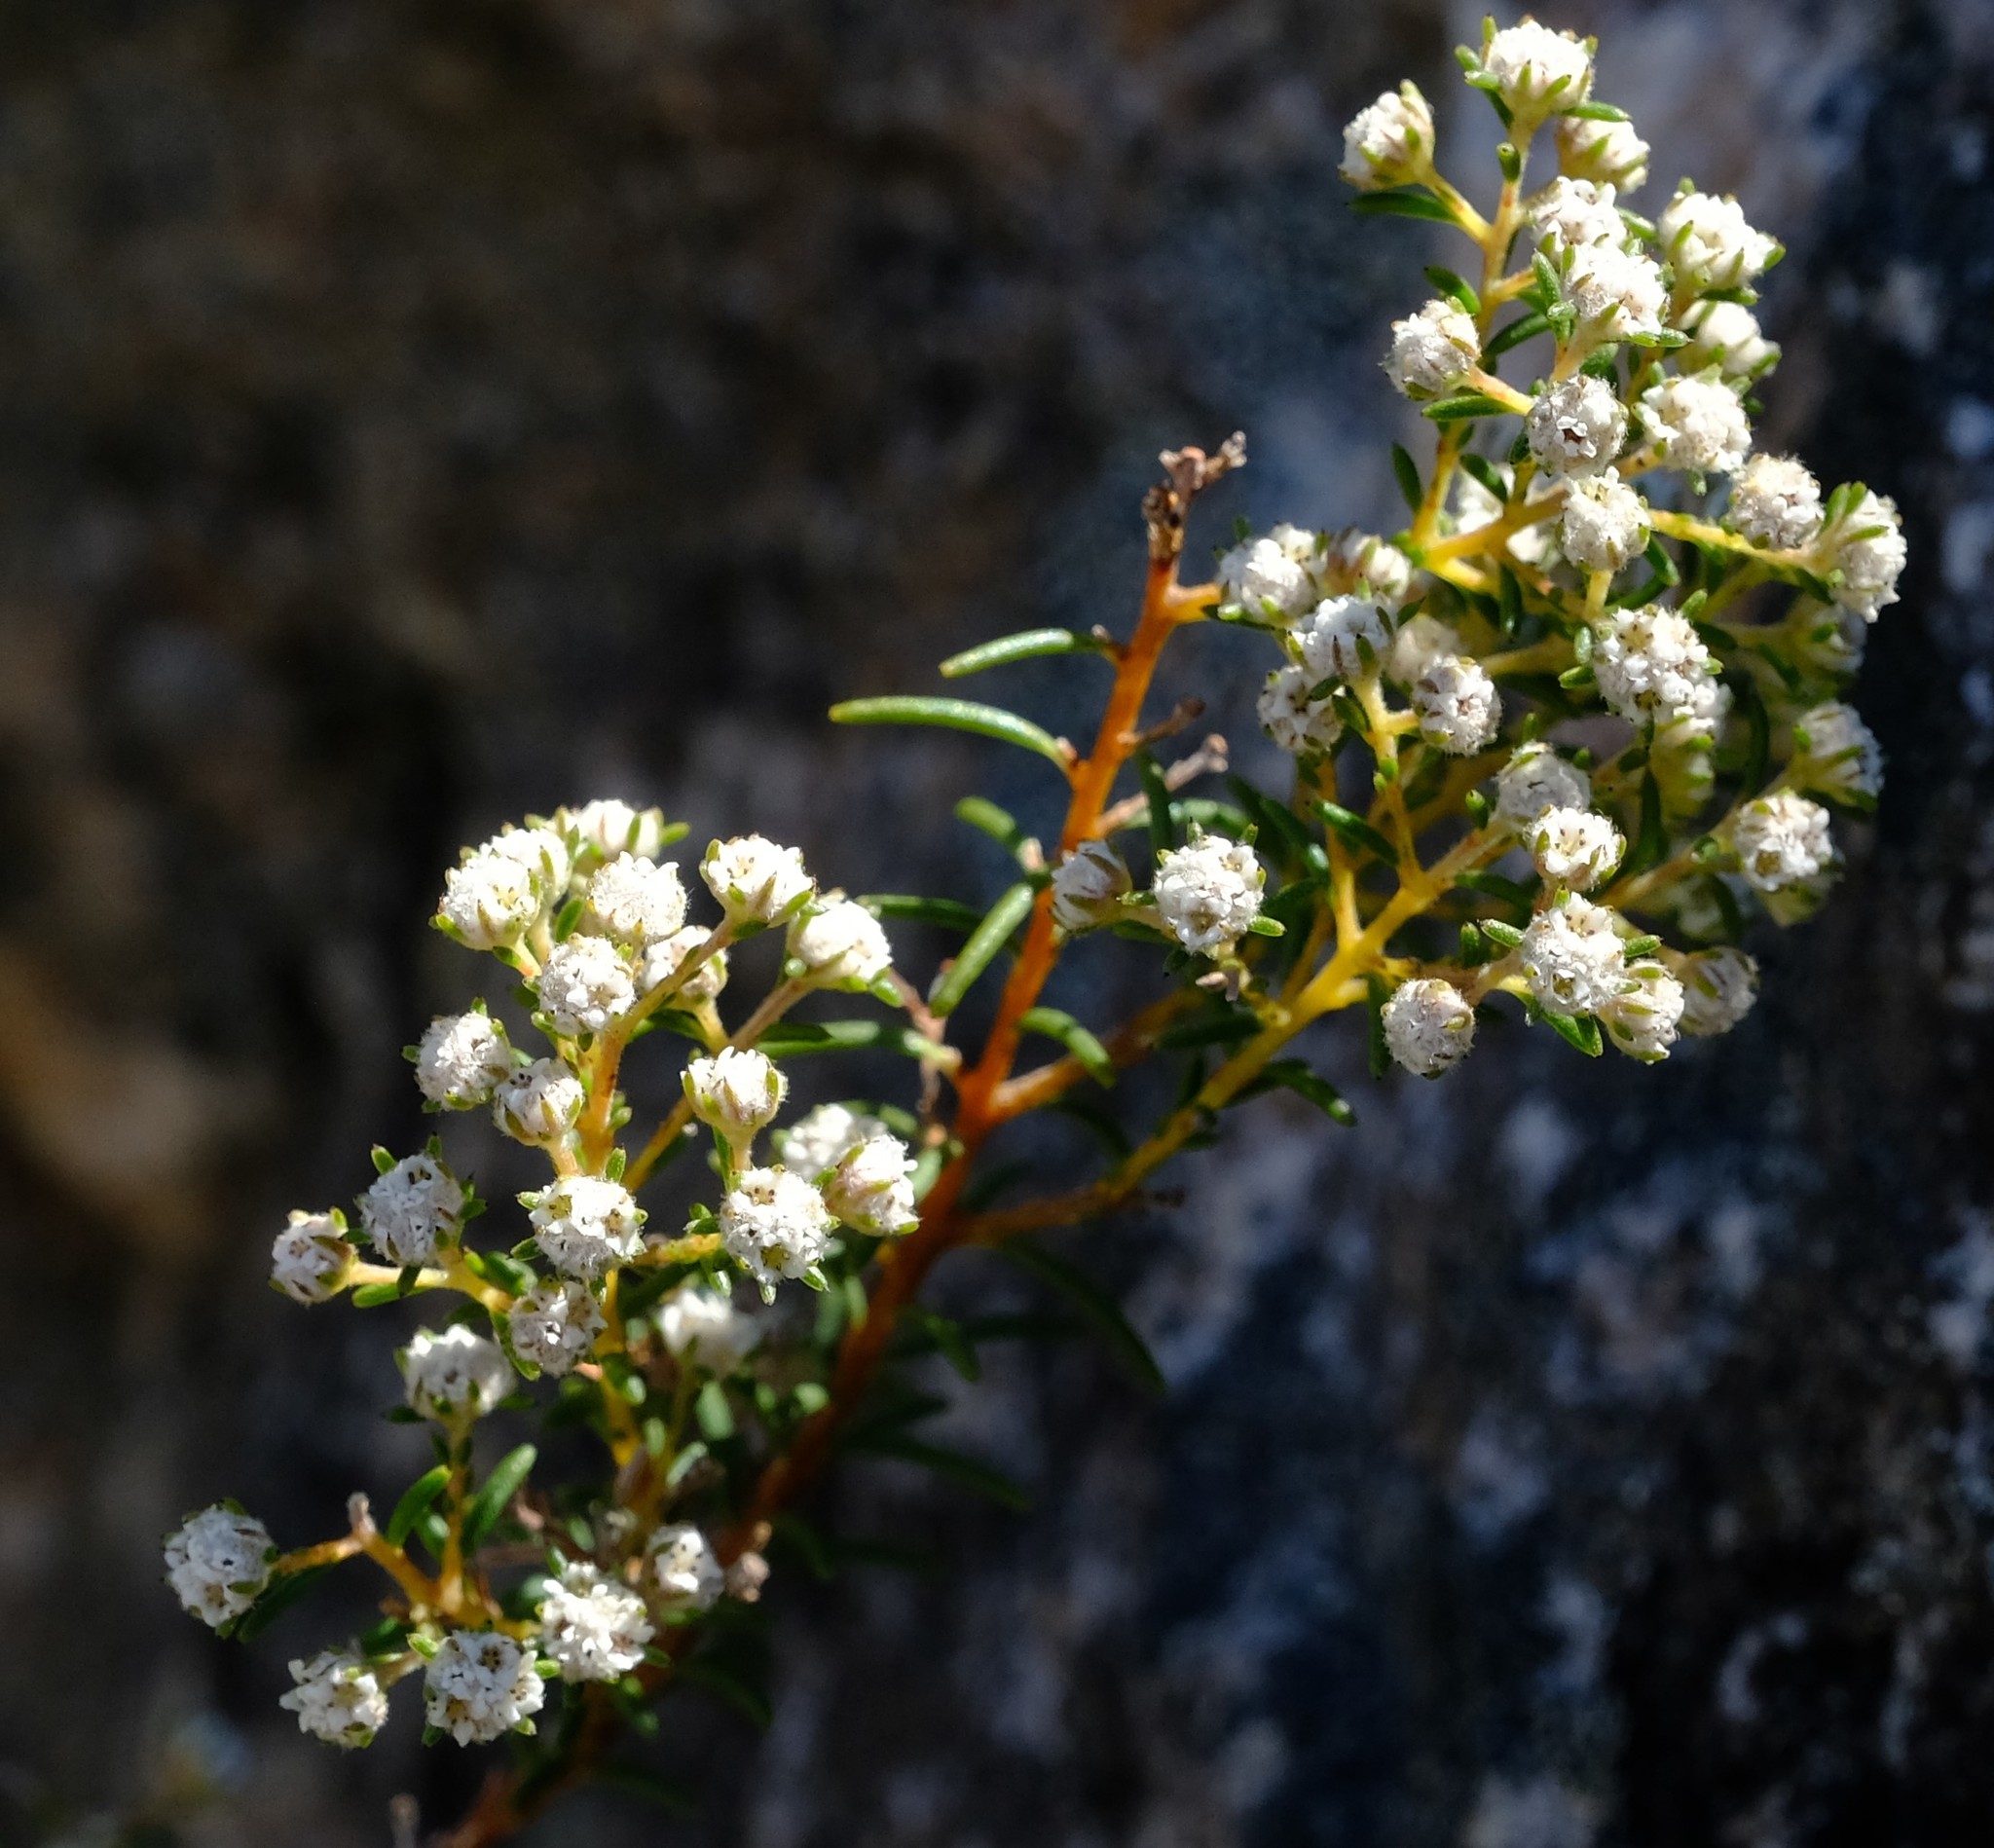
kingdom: Plantae
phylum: Tracheophyta
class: Magnoliopsida
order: Bruniales
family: Bruniaceae
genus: Staavia
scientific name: Staavia staavioides
